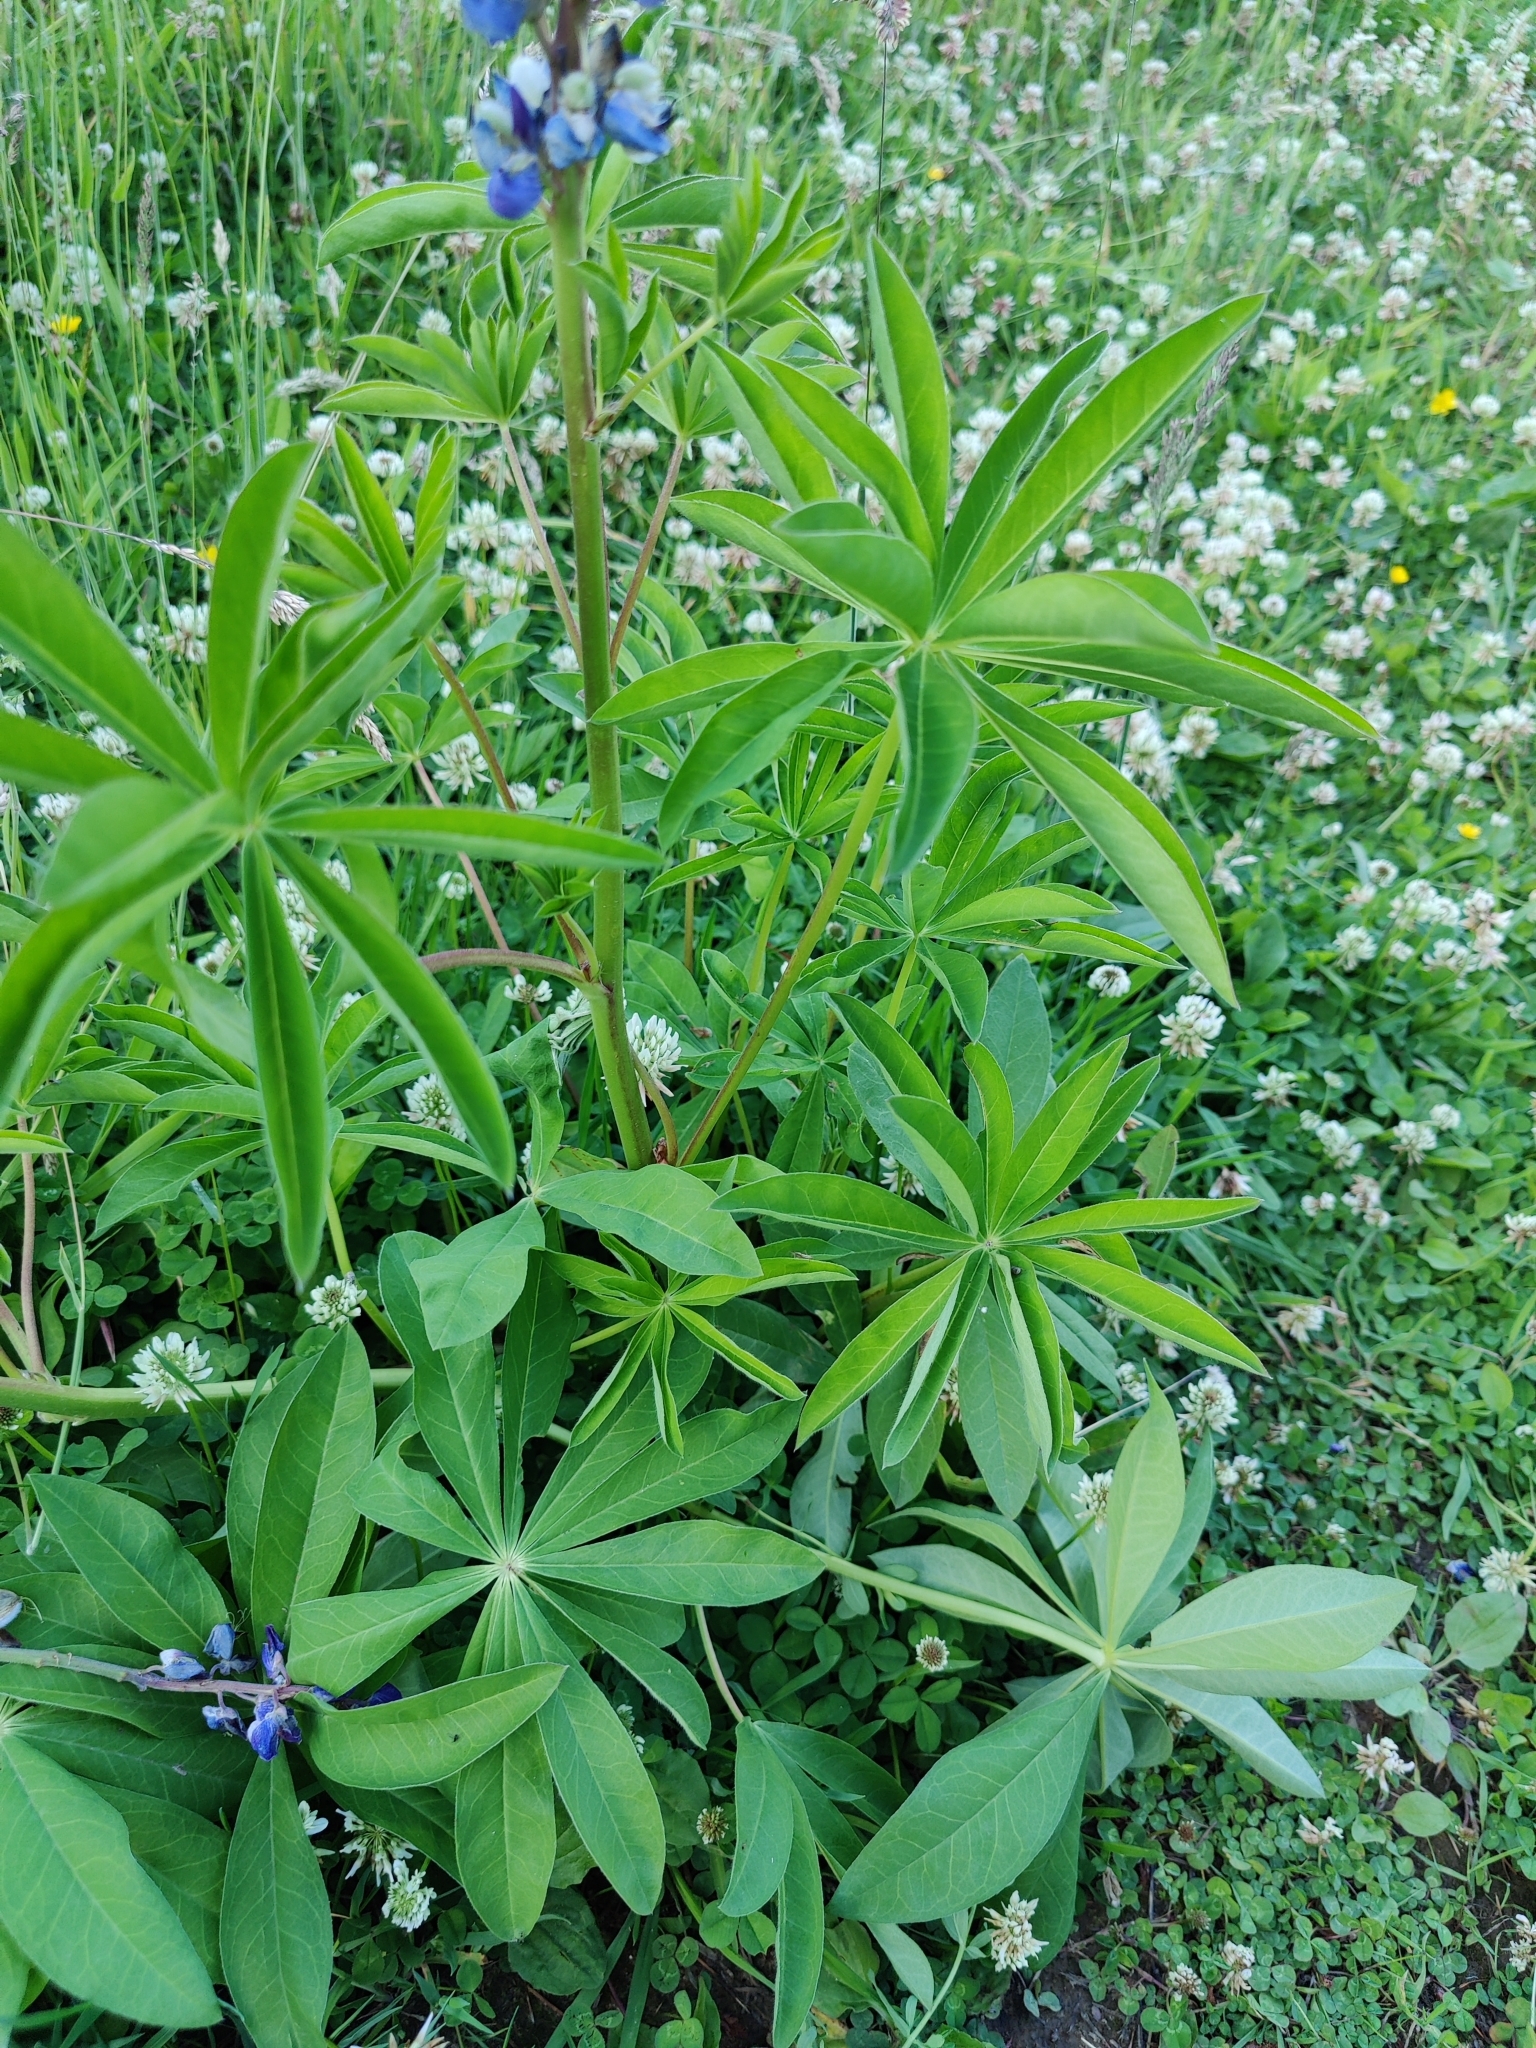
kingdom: Plantae
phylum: Tracheophyta
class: Magnoliopsida
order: Fabales
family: Fabaceae
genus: Lupinus
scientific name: Lupinus polyphyllus
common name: Garden lupin
